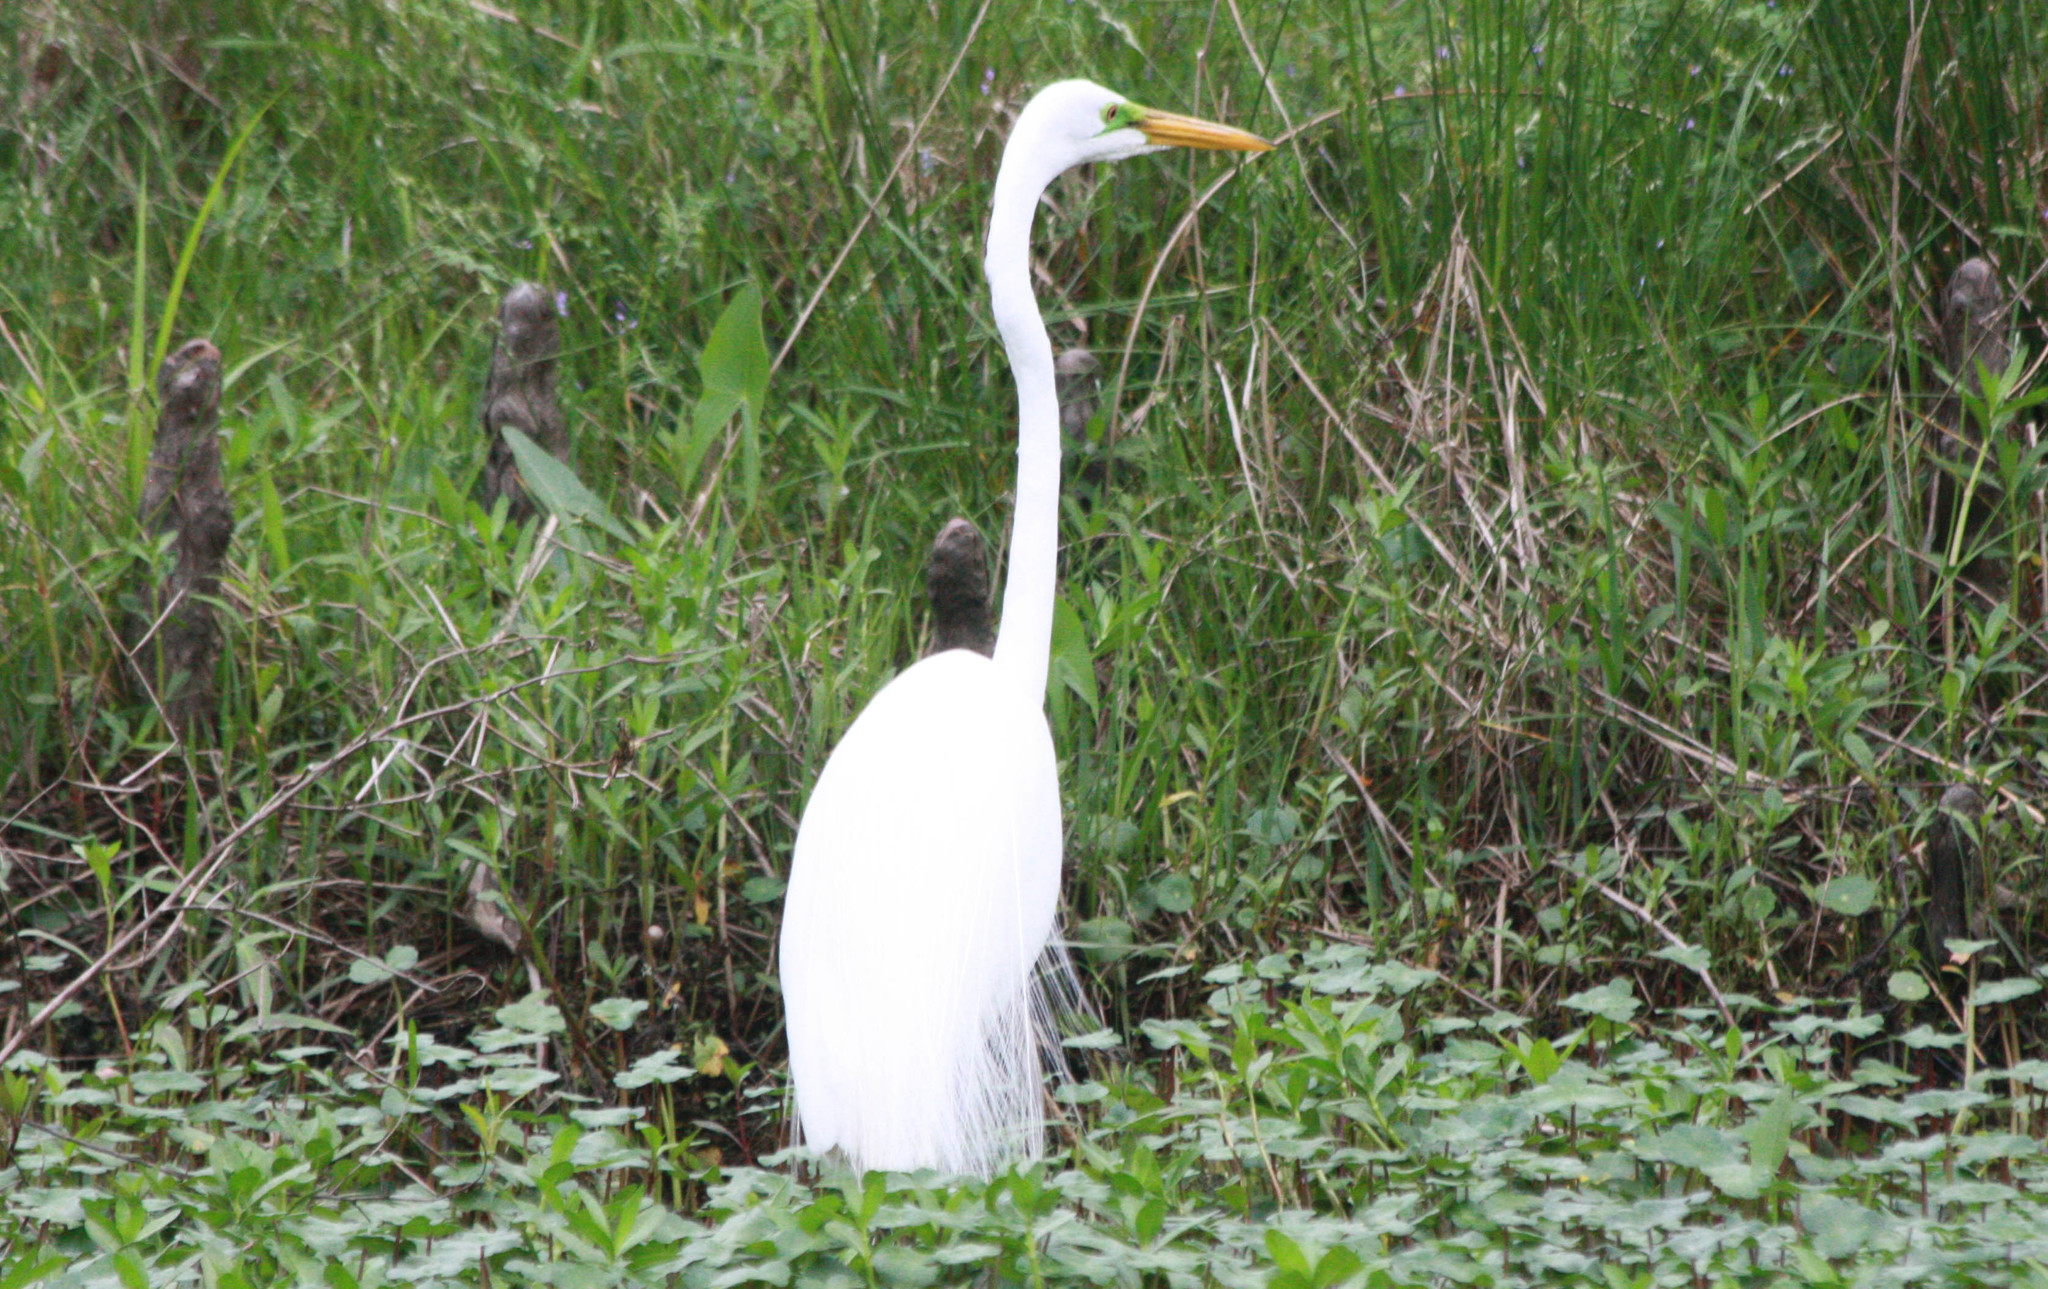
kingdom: Animalia
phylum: Chordata
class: Aves
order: Pelecaniformes
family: Ardeidae
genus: Ardea
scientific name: Ardea alba
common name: Great egret
